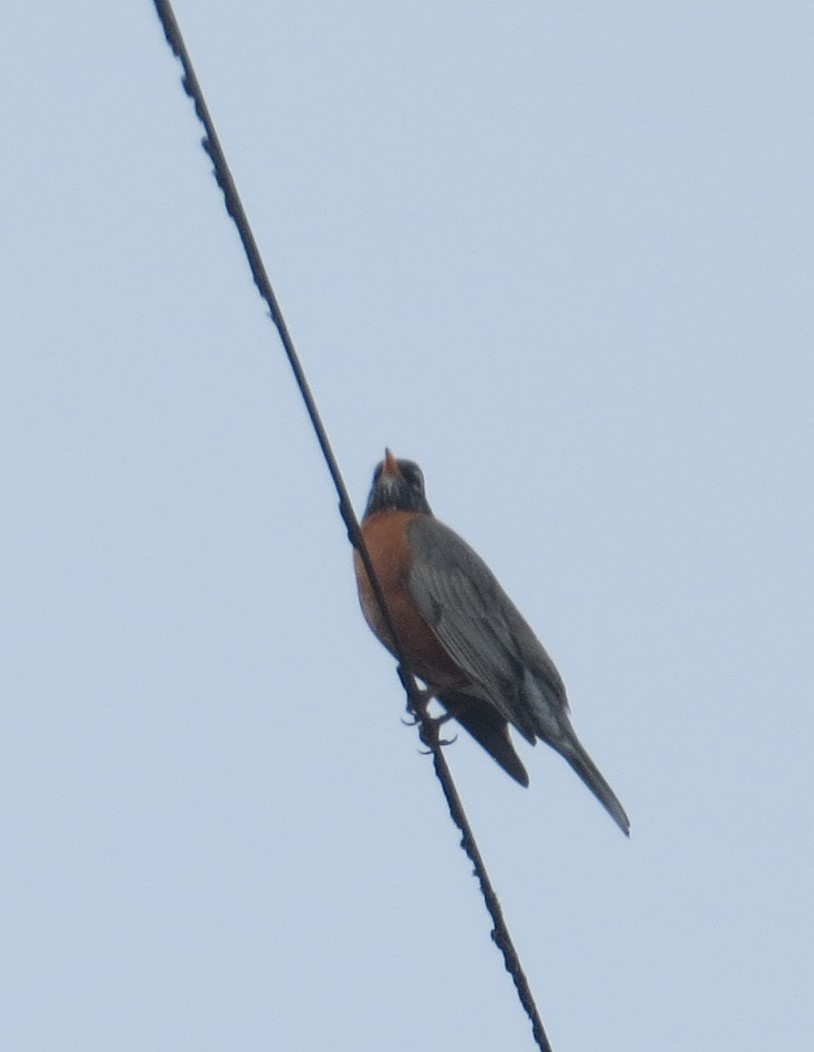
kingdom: Animalia
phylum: Chordata
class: Aves
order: Passeriformes
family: Turdidae
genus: Turdus
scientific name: Turdus migratorius
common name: American robin
